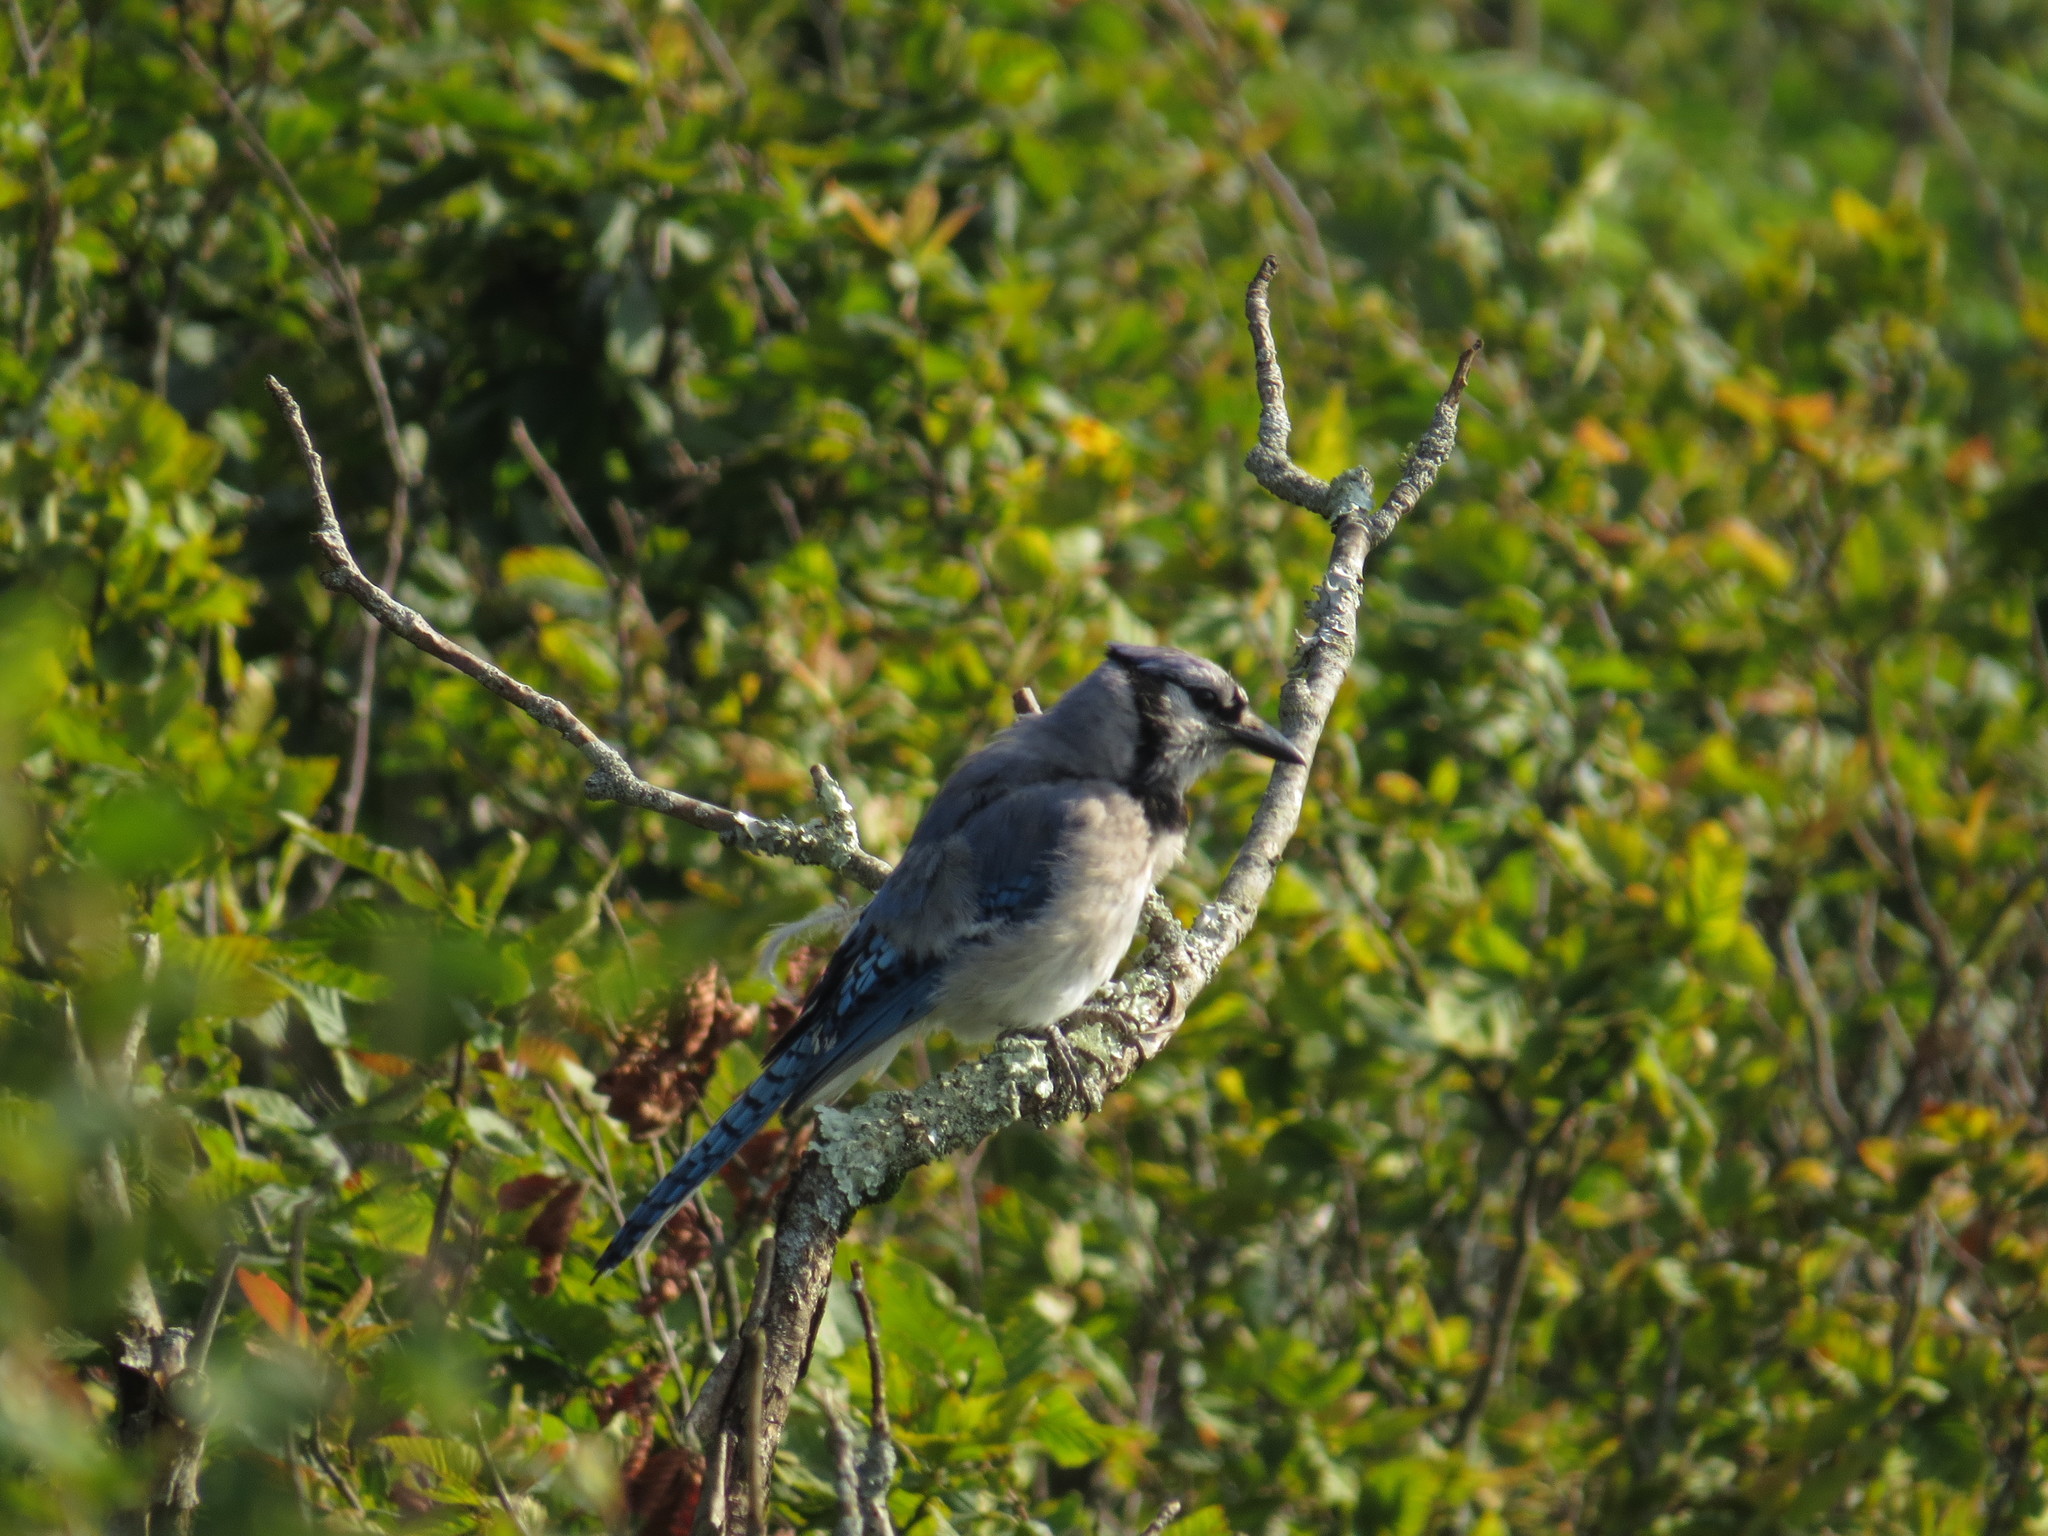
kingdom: Animalia
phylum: Chordata
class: Aves
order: Passeriformes
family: Corvidae
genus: Cyanocitta
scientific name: Cyanocitta cristata
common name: Blue jay
